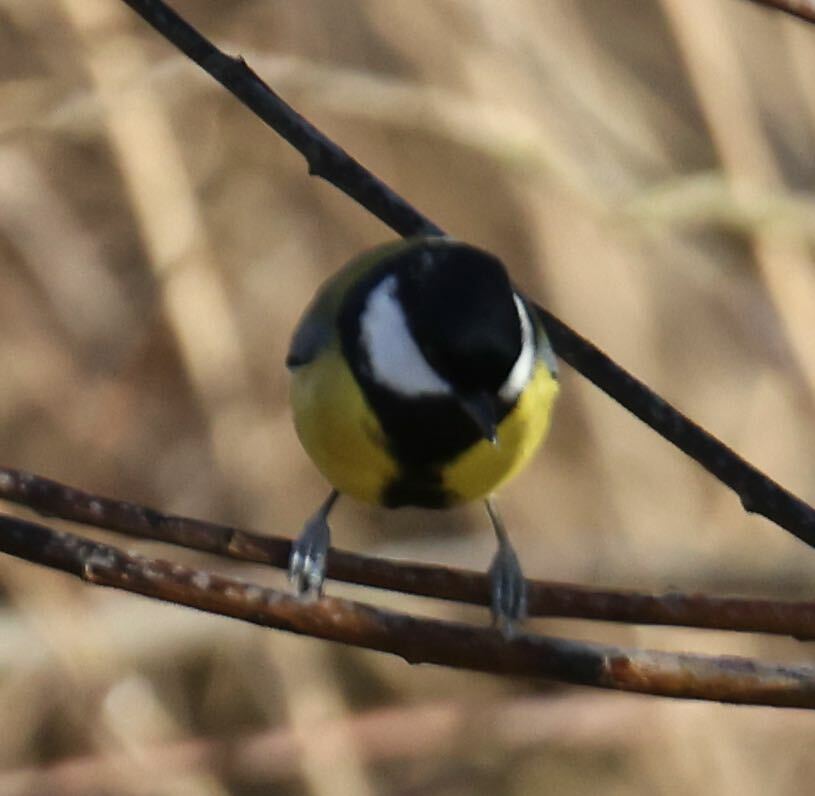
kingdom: Animalia
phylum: Chordata
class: Aves
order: Passeriformes
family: Paridae
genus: Parus
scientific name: Parus major
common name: Great tit
